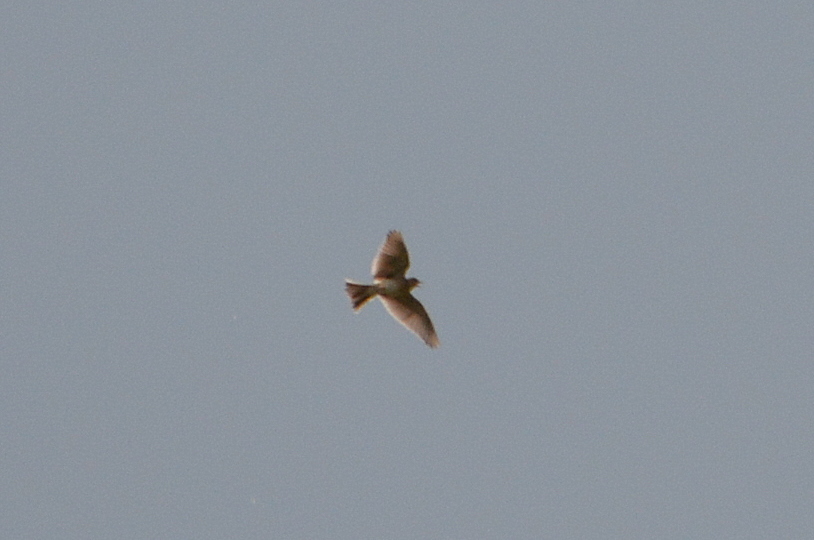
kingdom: Animalia
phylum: Chordata
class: Aves
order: Passeriformes
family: Alaudidae
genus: Alauda
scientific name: Alauda arvensis
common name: Eurasian skylark
